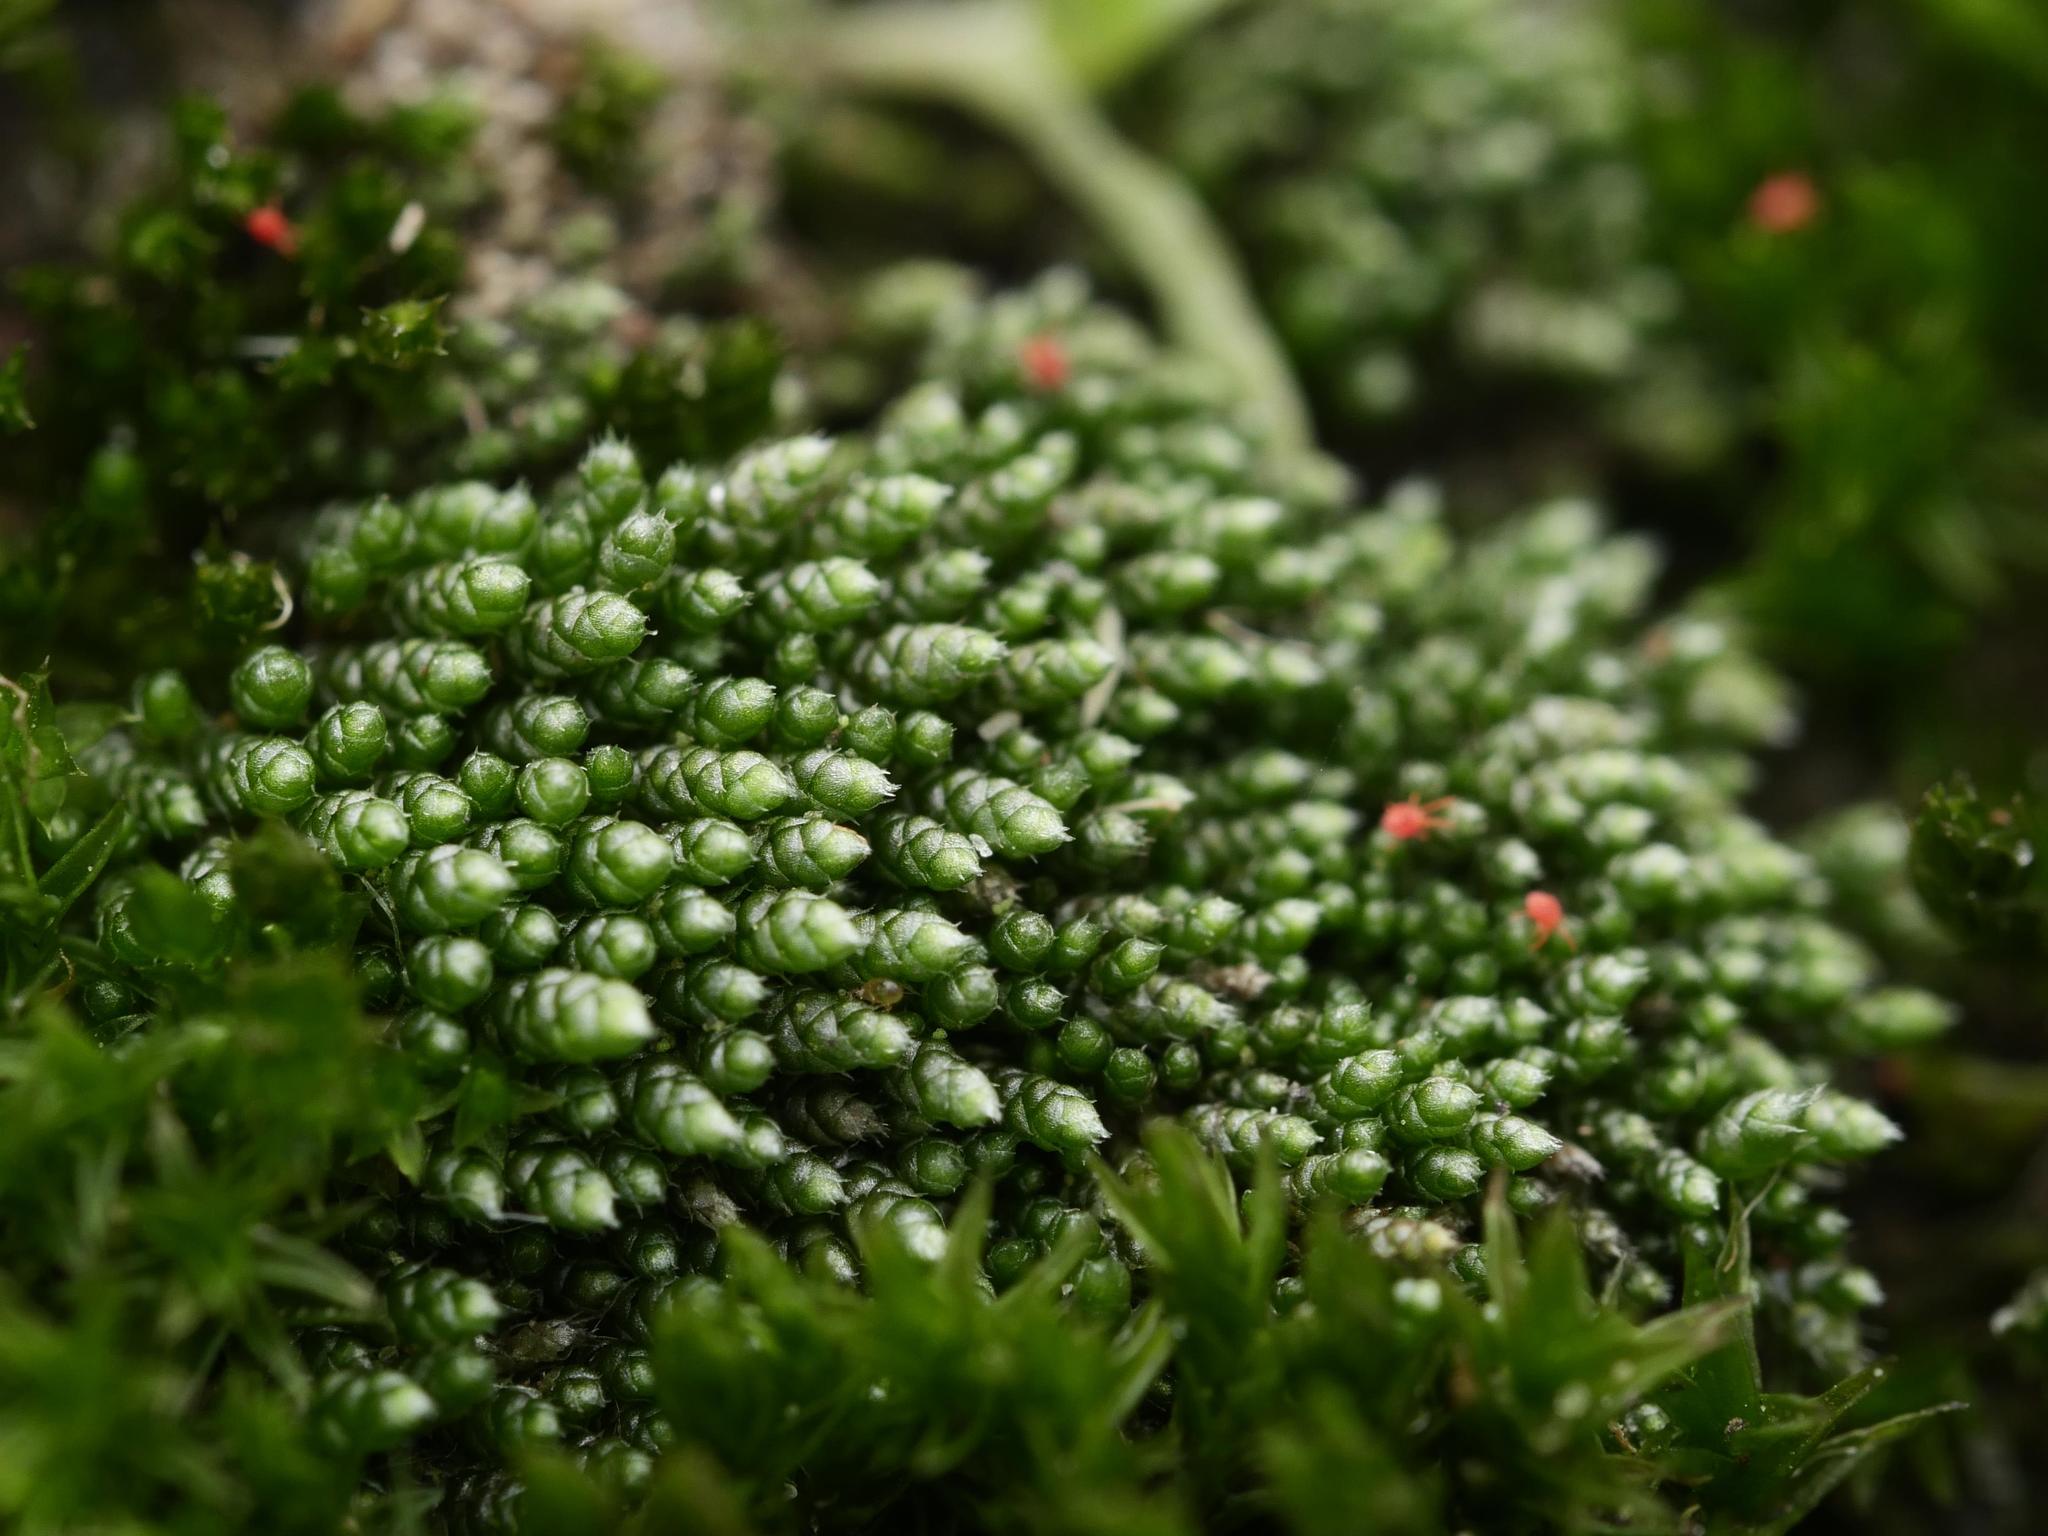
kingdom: Plantae
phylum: Bryophyta
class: Bryopsida
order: Bryales
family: Bryaceae
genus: Bryum
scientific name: Bryum argenteum
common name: Silver-moss
